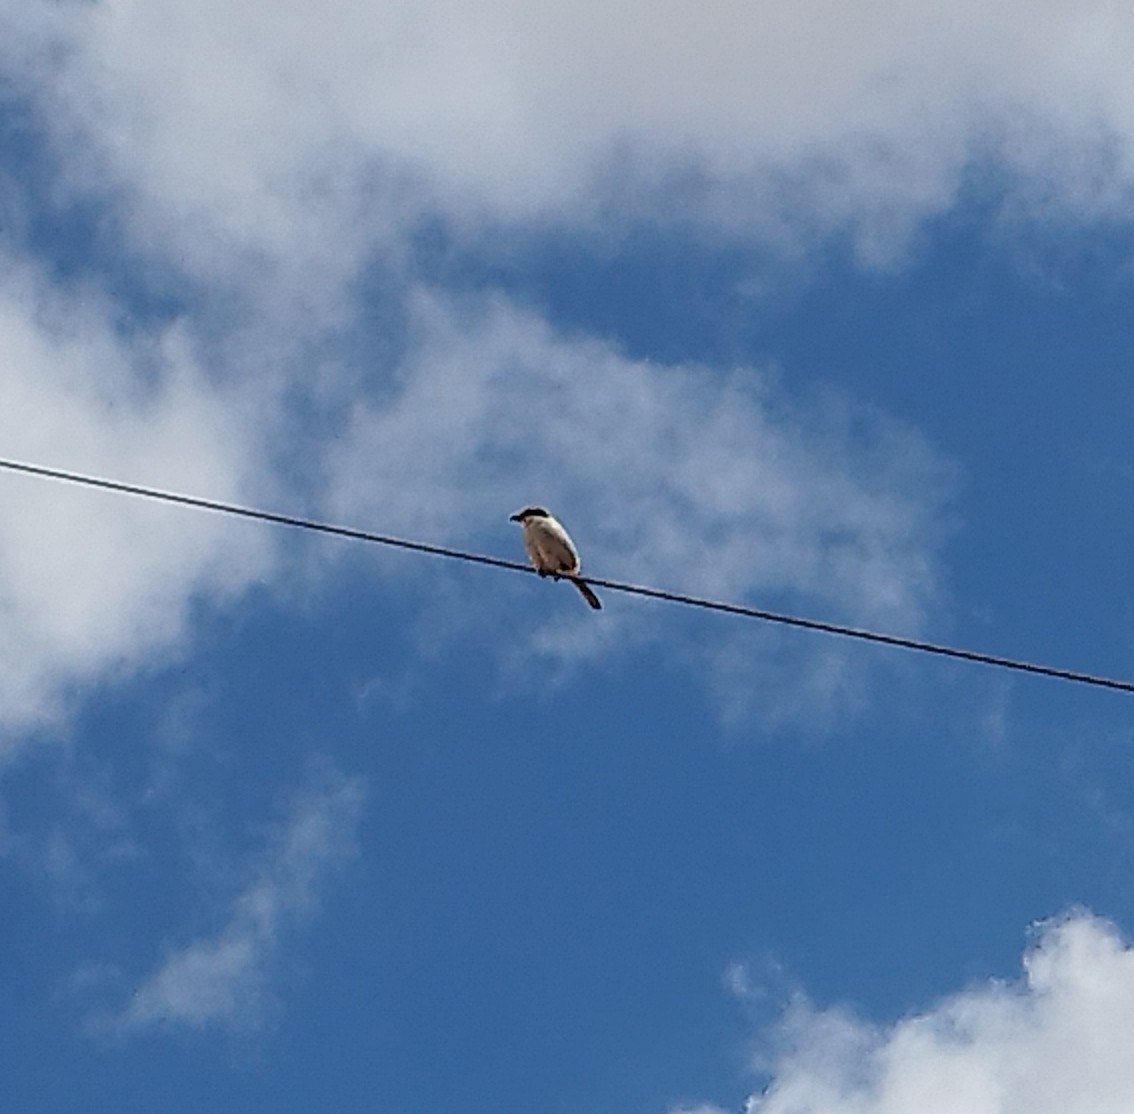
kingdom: Animalia
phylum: Chordata
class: Aves
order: Passeriformes
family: Laniidae
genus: Lanius
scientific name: Lanius excubitor
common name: Great grey shrike
